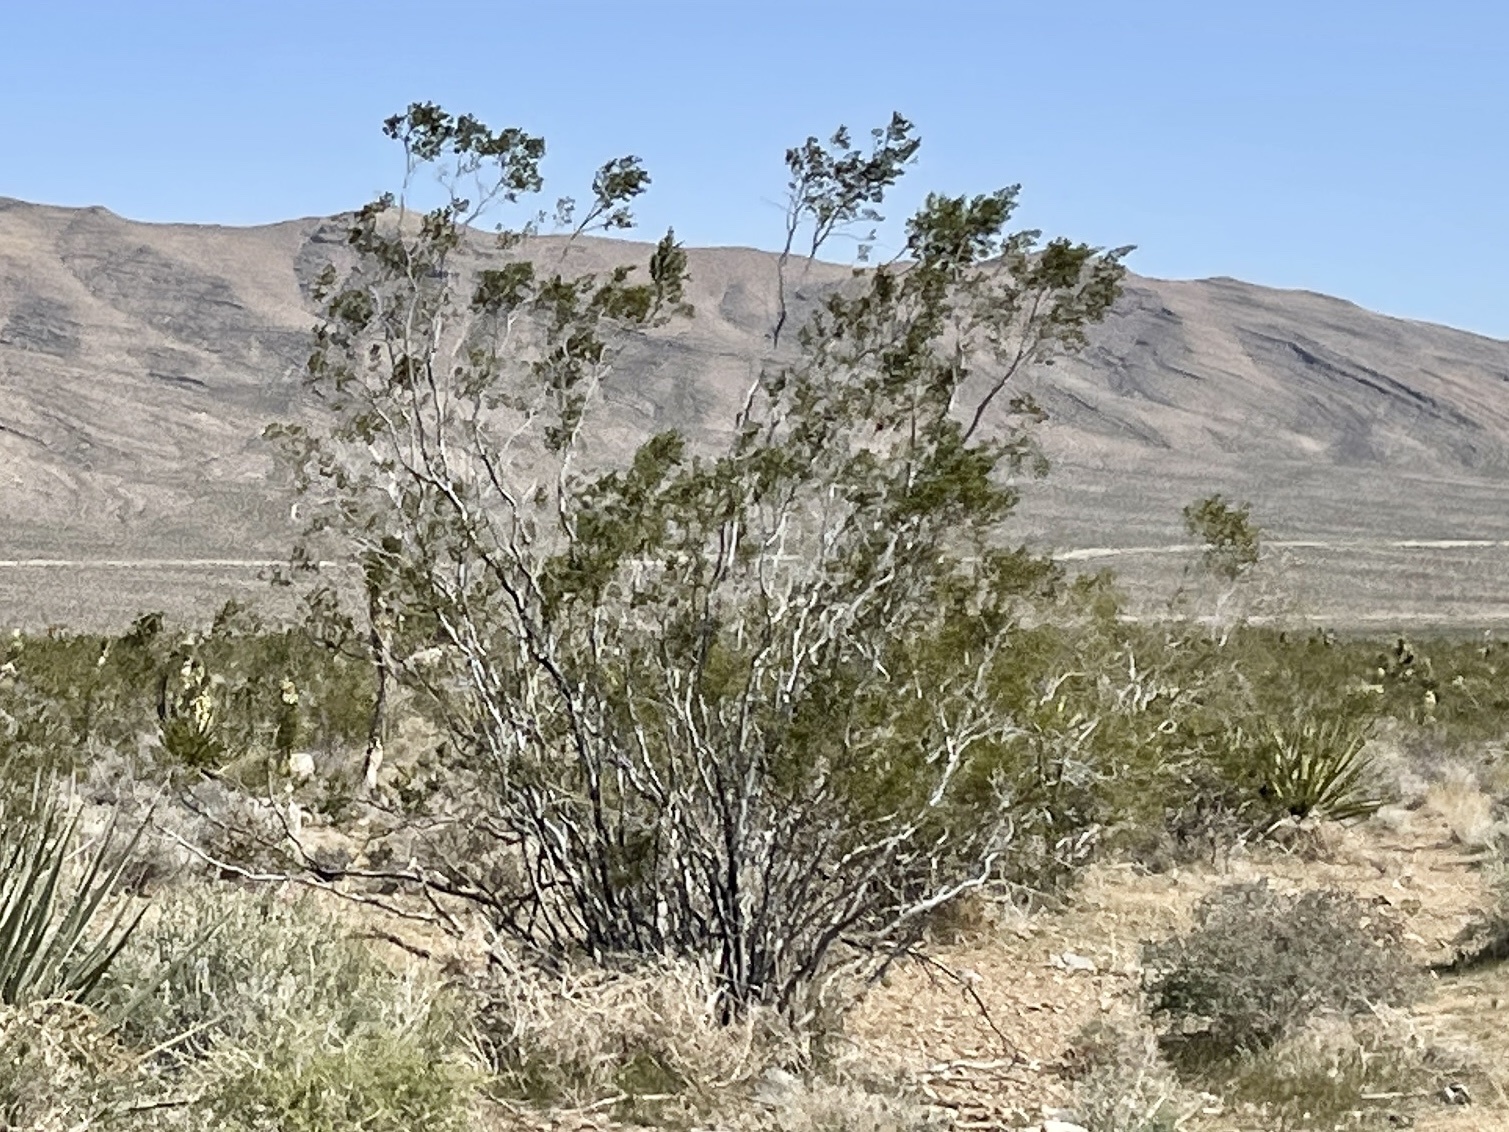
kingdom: Plantae
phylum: Tracheophyta
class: Magnoliopsida
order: Zygophyllales
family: Zygophyllaceae
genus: Larrea
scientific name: Larrea tridentata
